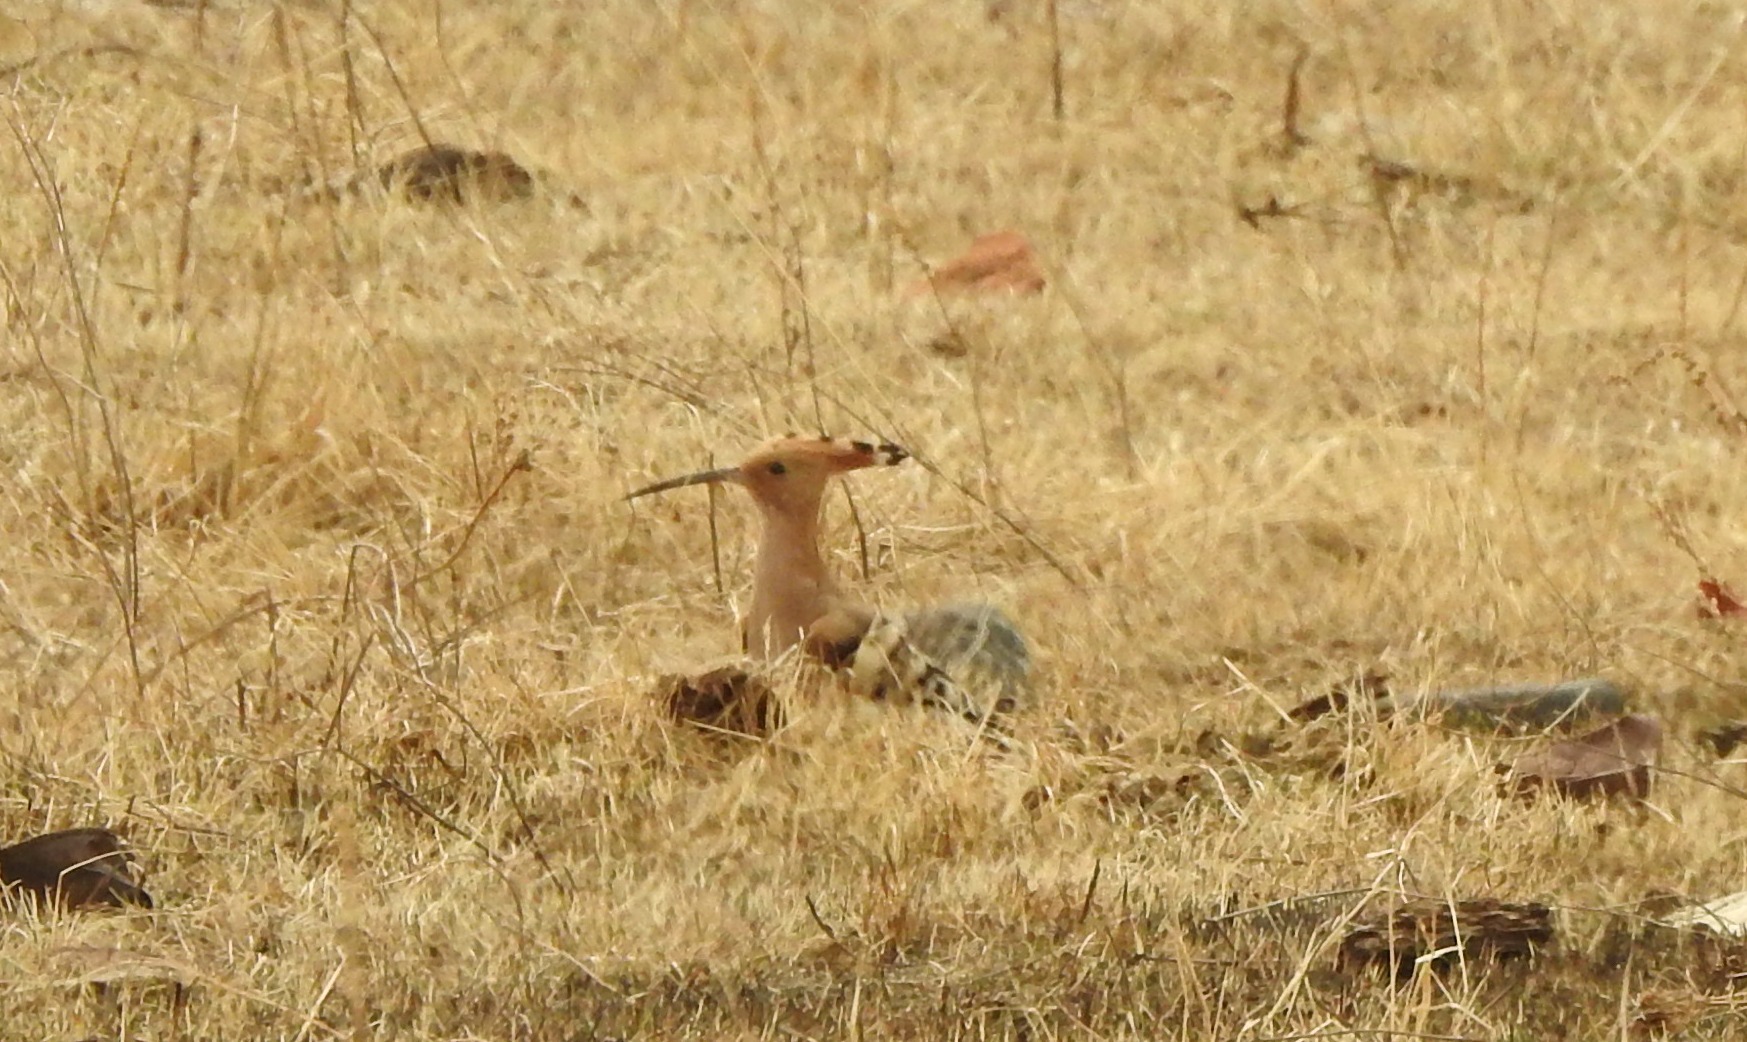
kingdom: Animalia
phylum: Chordata
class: Aves
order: Bucerotiformes
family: Upupidae
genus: Upupa
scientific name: Upupa epops
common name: Eurasian hoopoe
